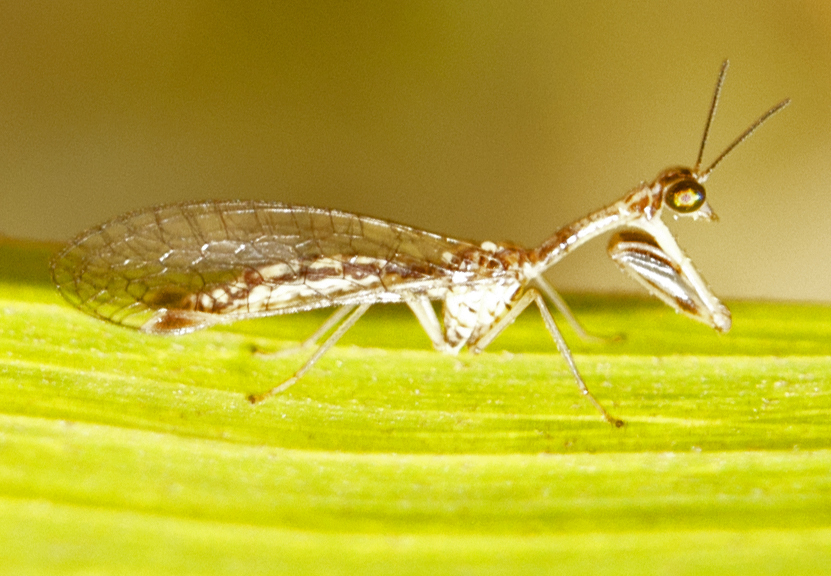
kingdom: Animalia
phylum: Arthropoda
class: Insecta
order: Neuroptera
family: Mantispidae
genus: Austromantispa
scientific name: Austromantispa imbecilla
